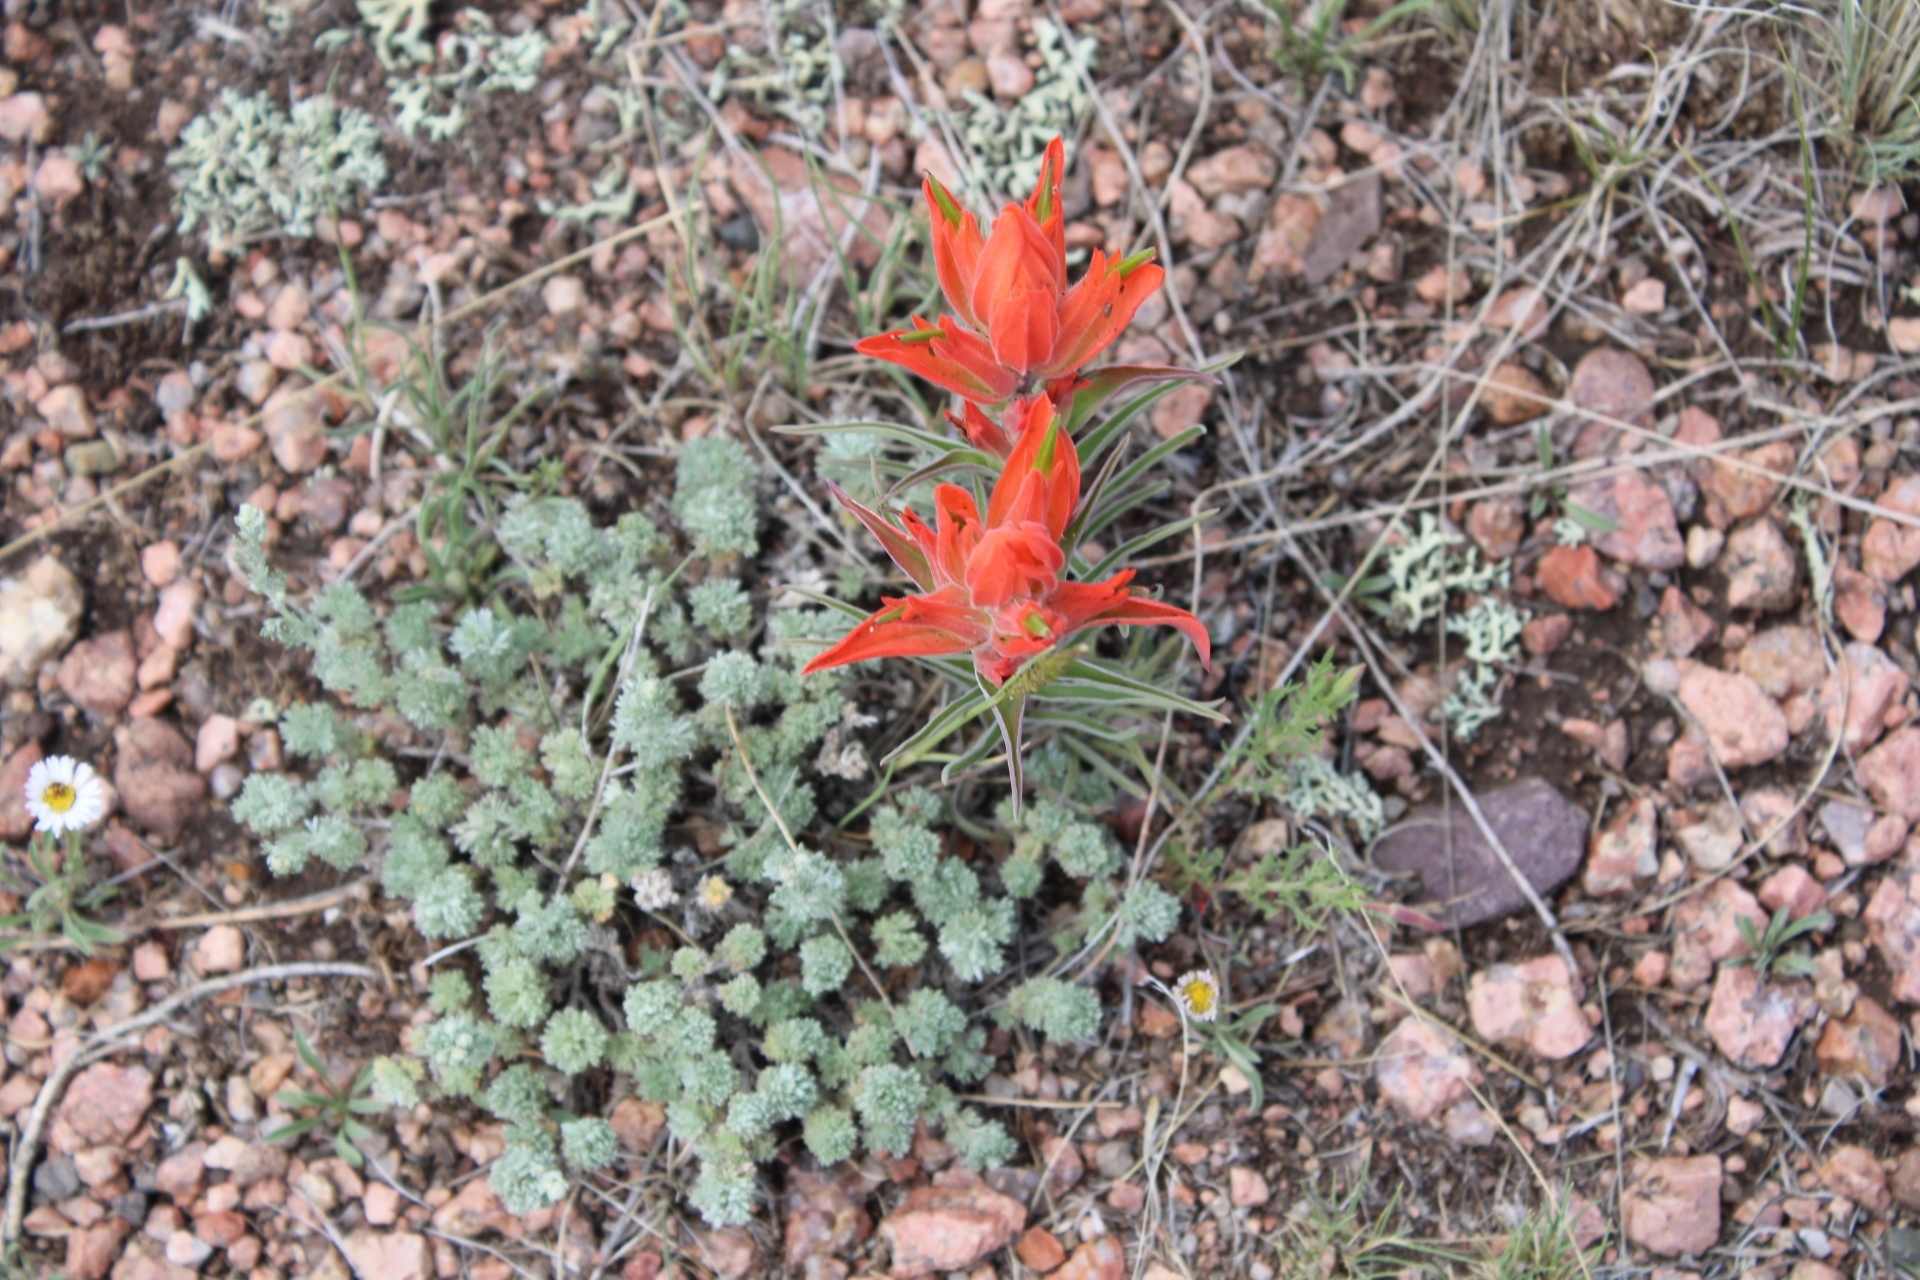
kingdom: Plantae
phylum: Tracheophyta
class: Magnoliopsida
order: Lamiales
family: Orobanchaceae
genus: Castilleja
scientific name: Castilleja integra
